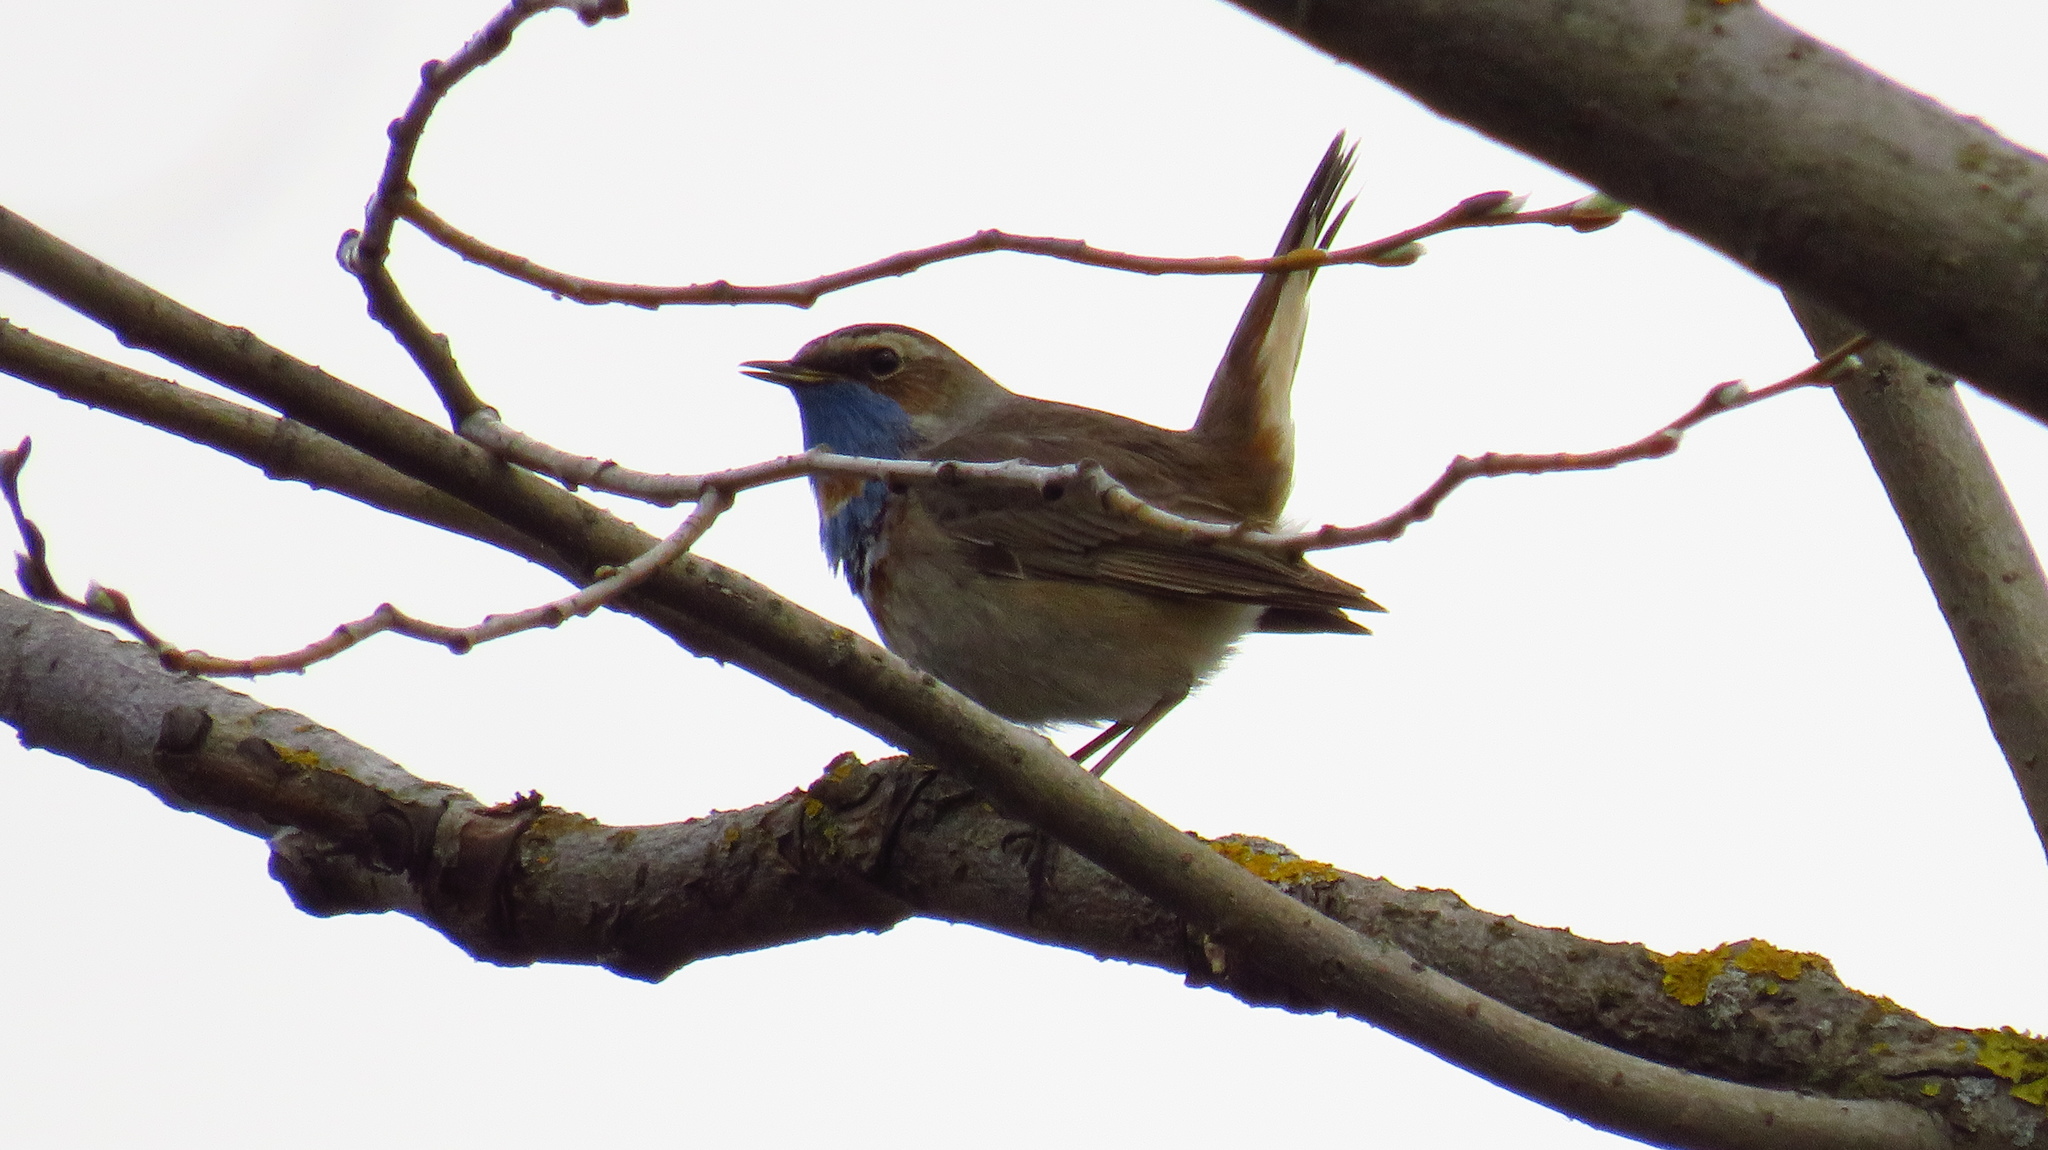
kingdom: Animalia
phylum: Chordata
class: Aves
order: Passeriformes
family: Muscicapidae
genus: Luscinia
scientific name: Luscinia svecica
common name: Bluethroat
